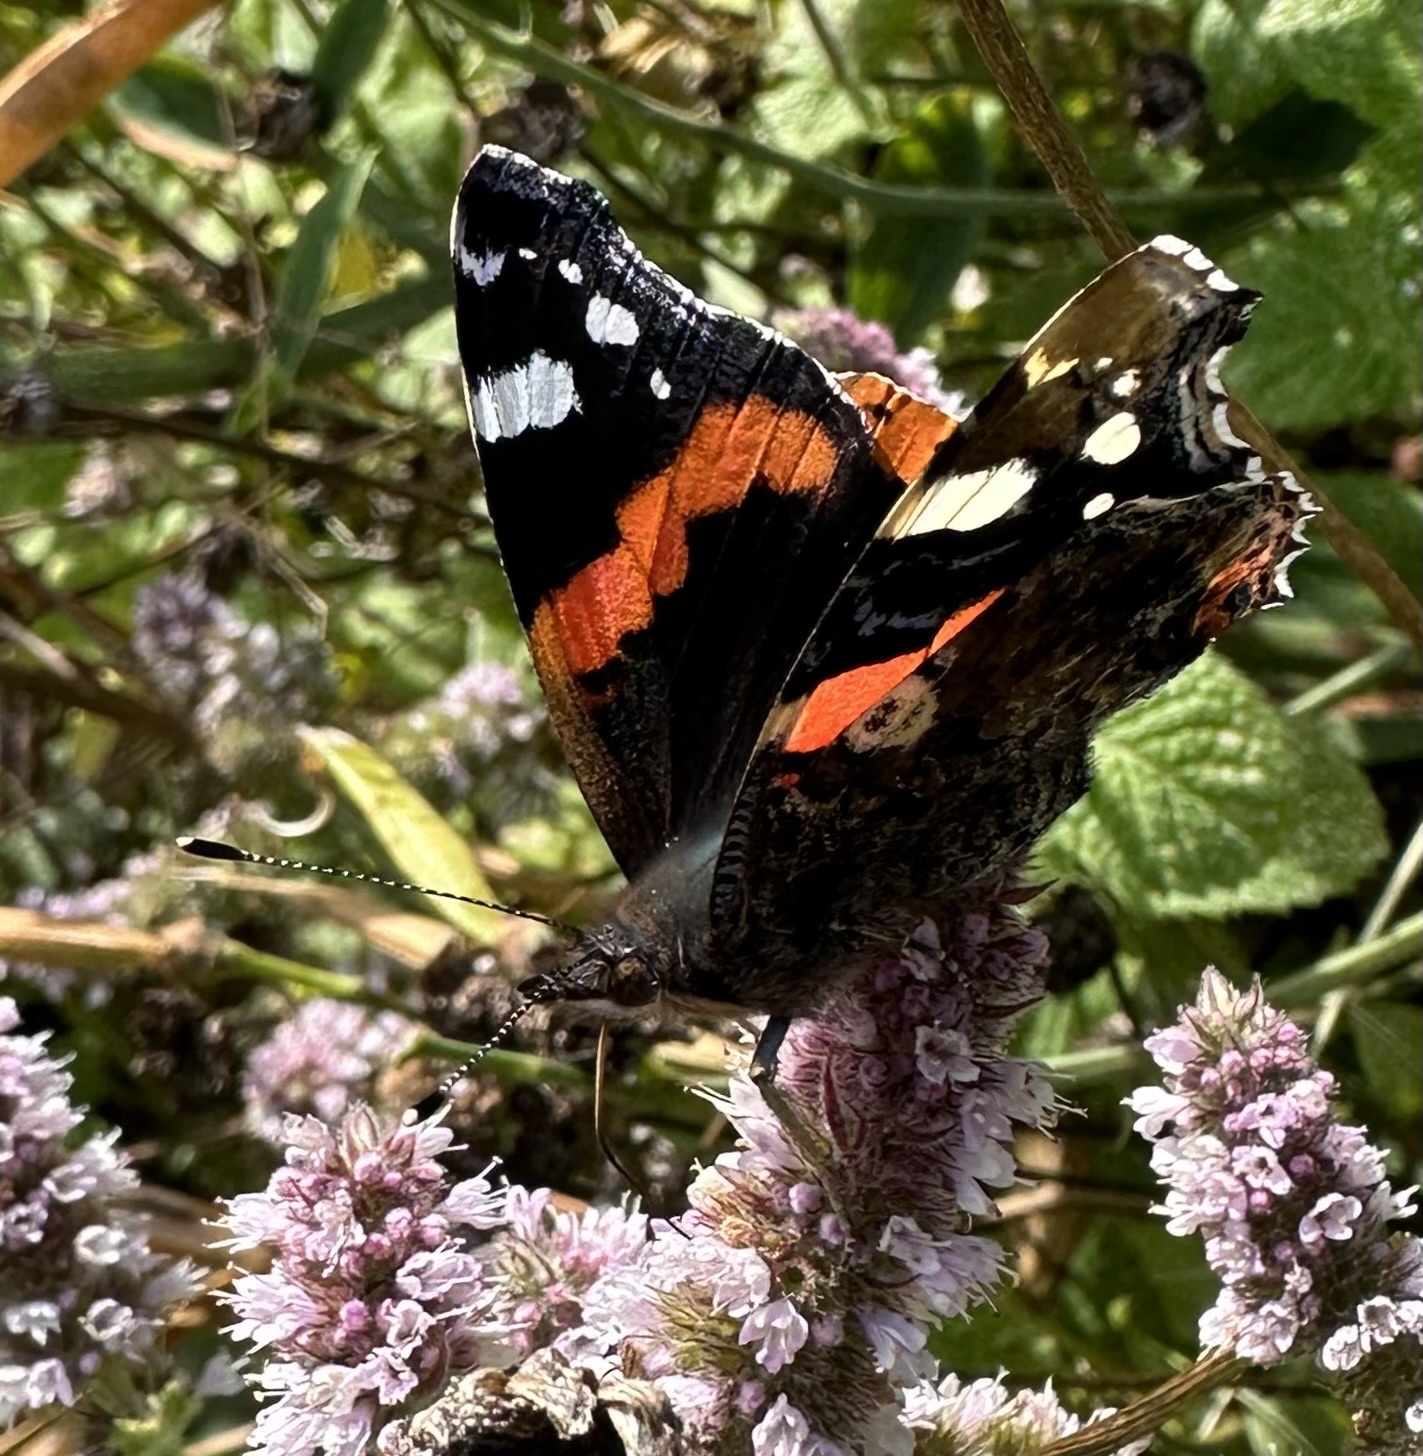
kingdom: Animalia
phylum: Arthropoda
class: Insecta
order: Lepidoptera
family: Nymphalidae
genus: Vanessa
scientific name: Vanessa atalanta
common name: Red admiral
